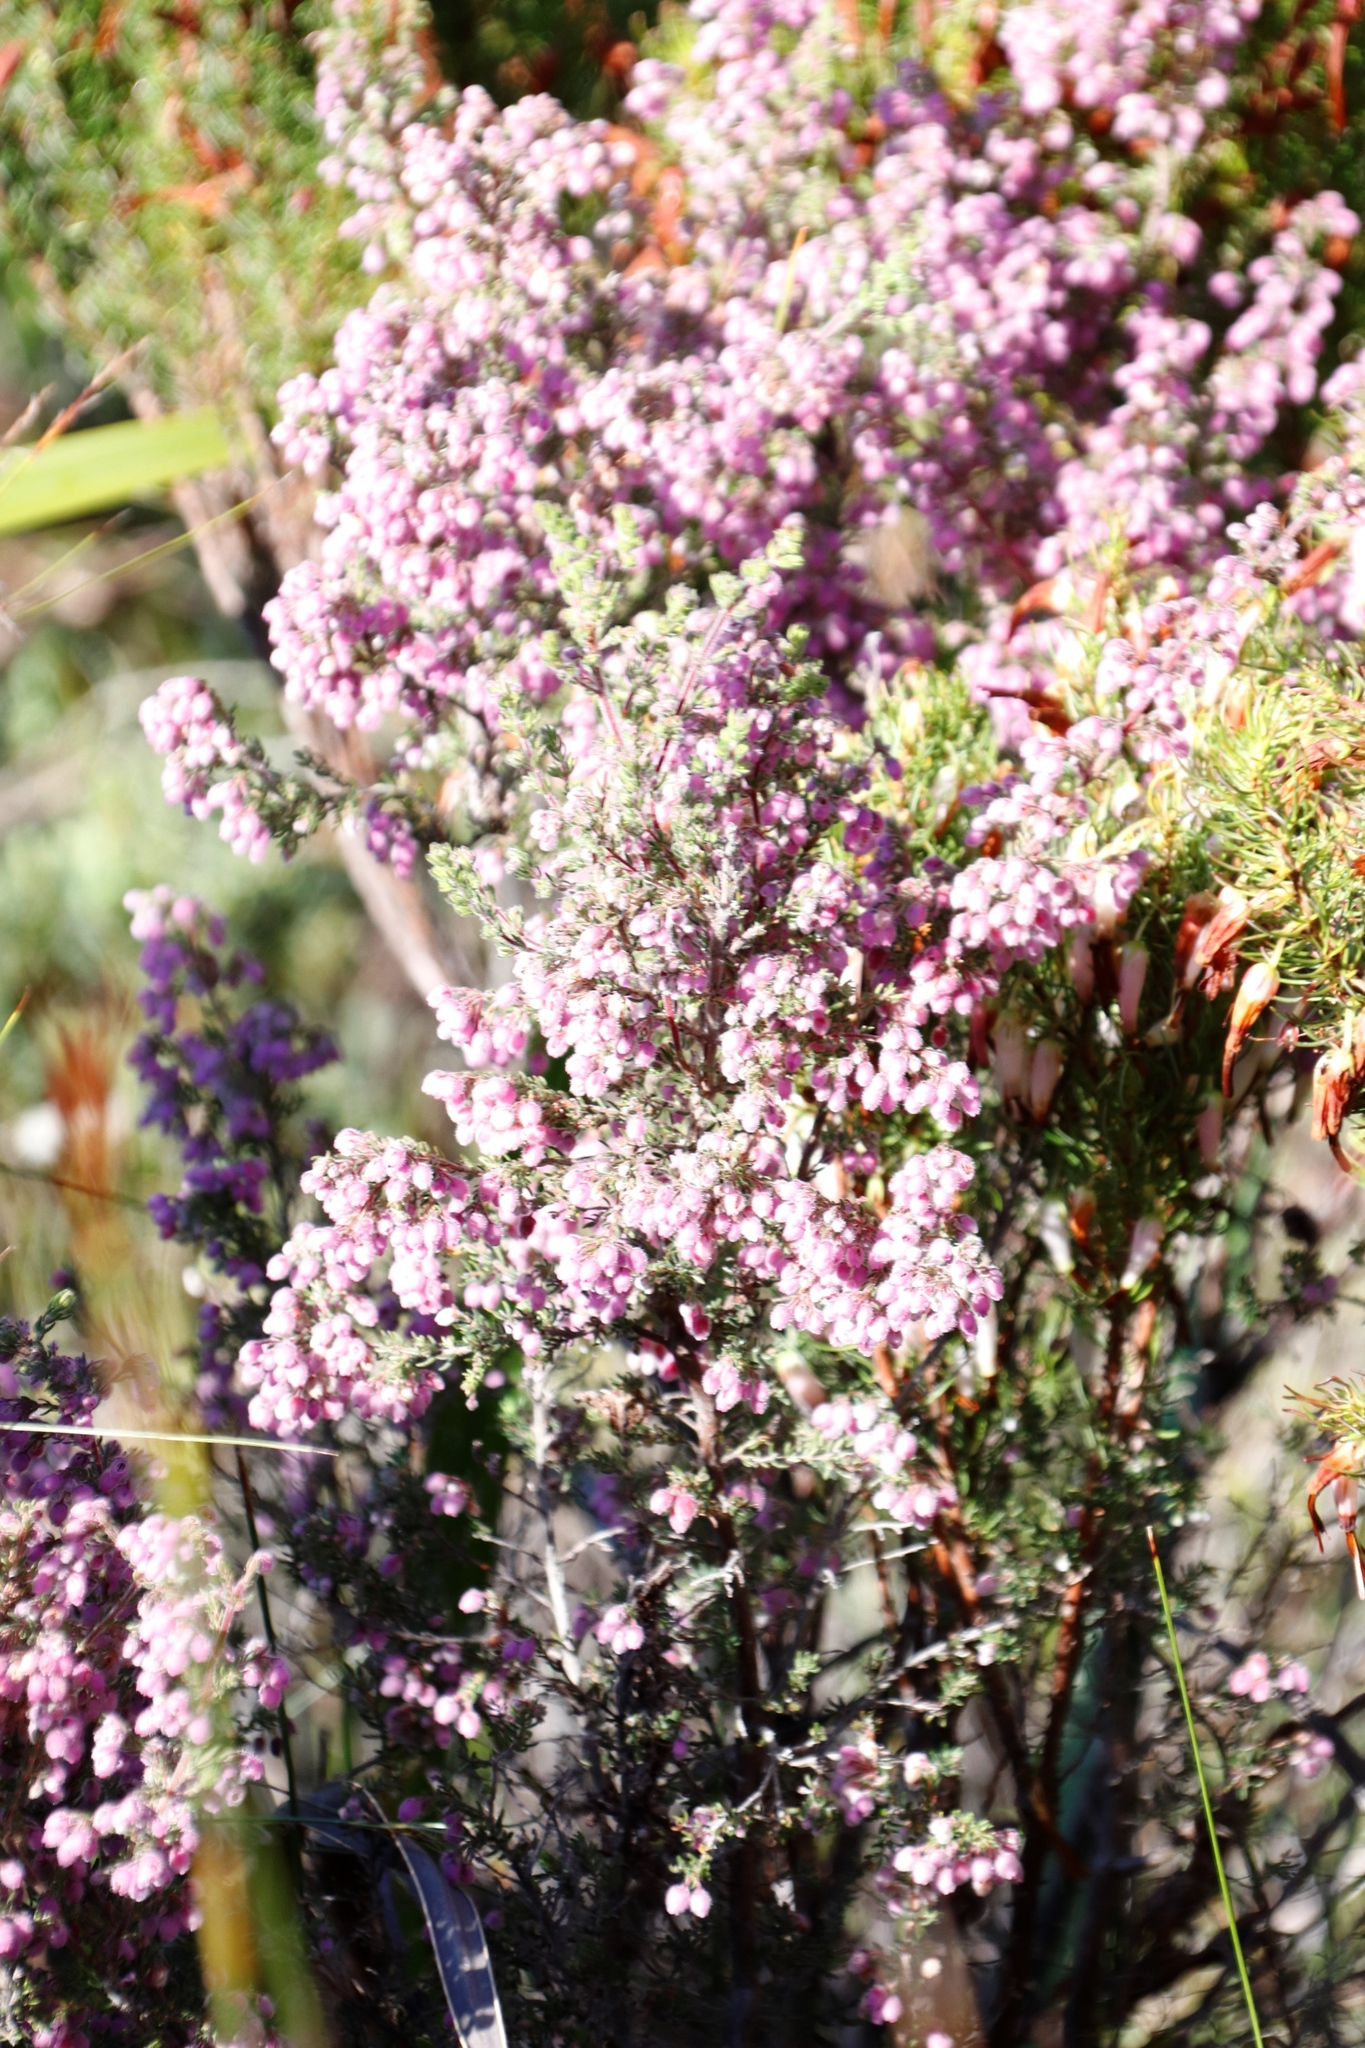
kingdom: Plantae
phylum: Tracheophyta
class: Magnoliopsida
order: Ericales
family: Ericaceae
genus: Erica
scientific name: Erica hirtiflora
